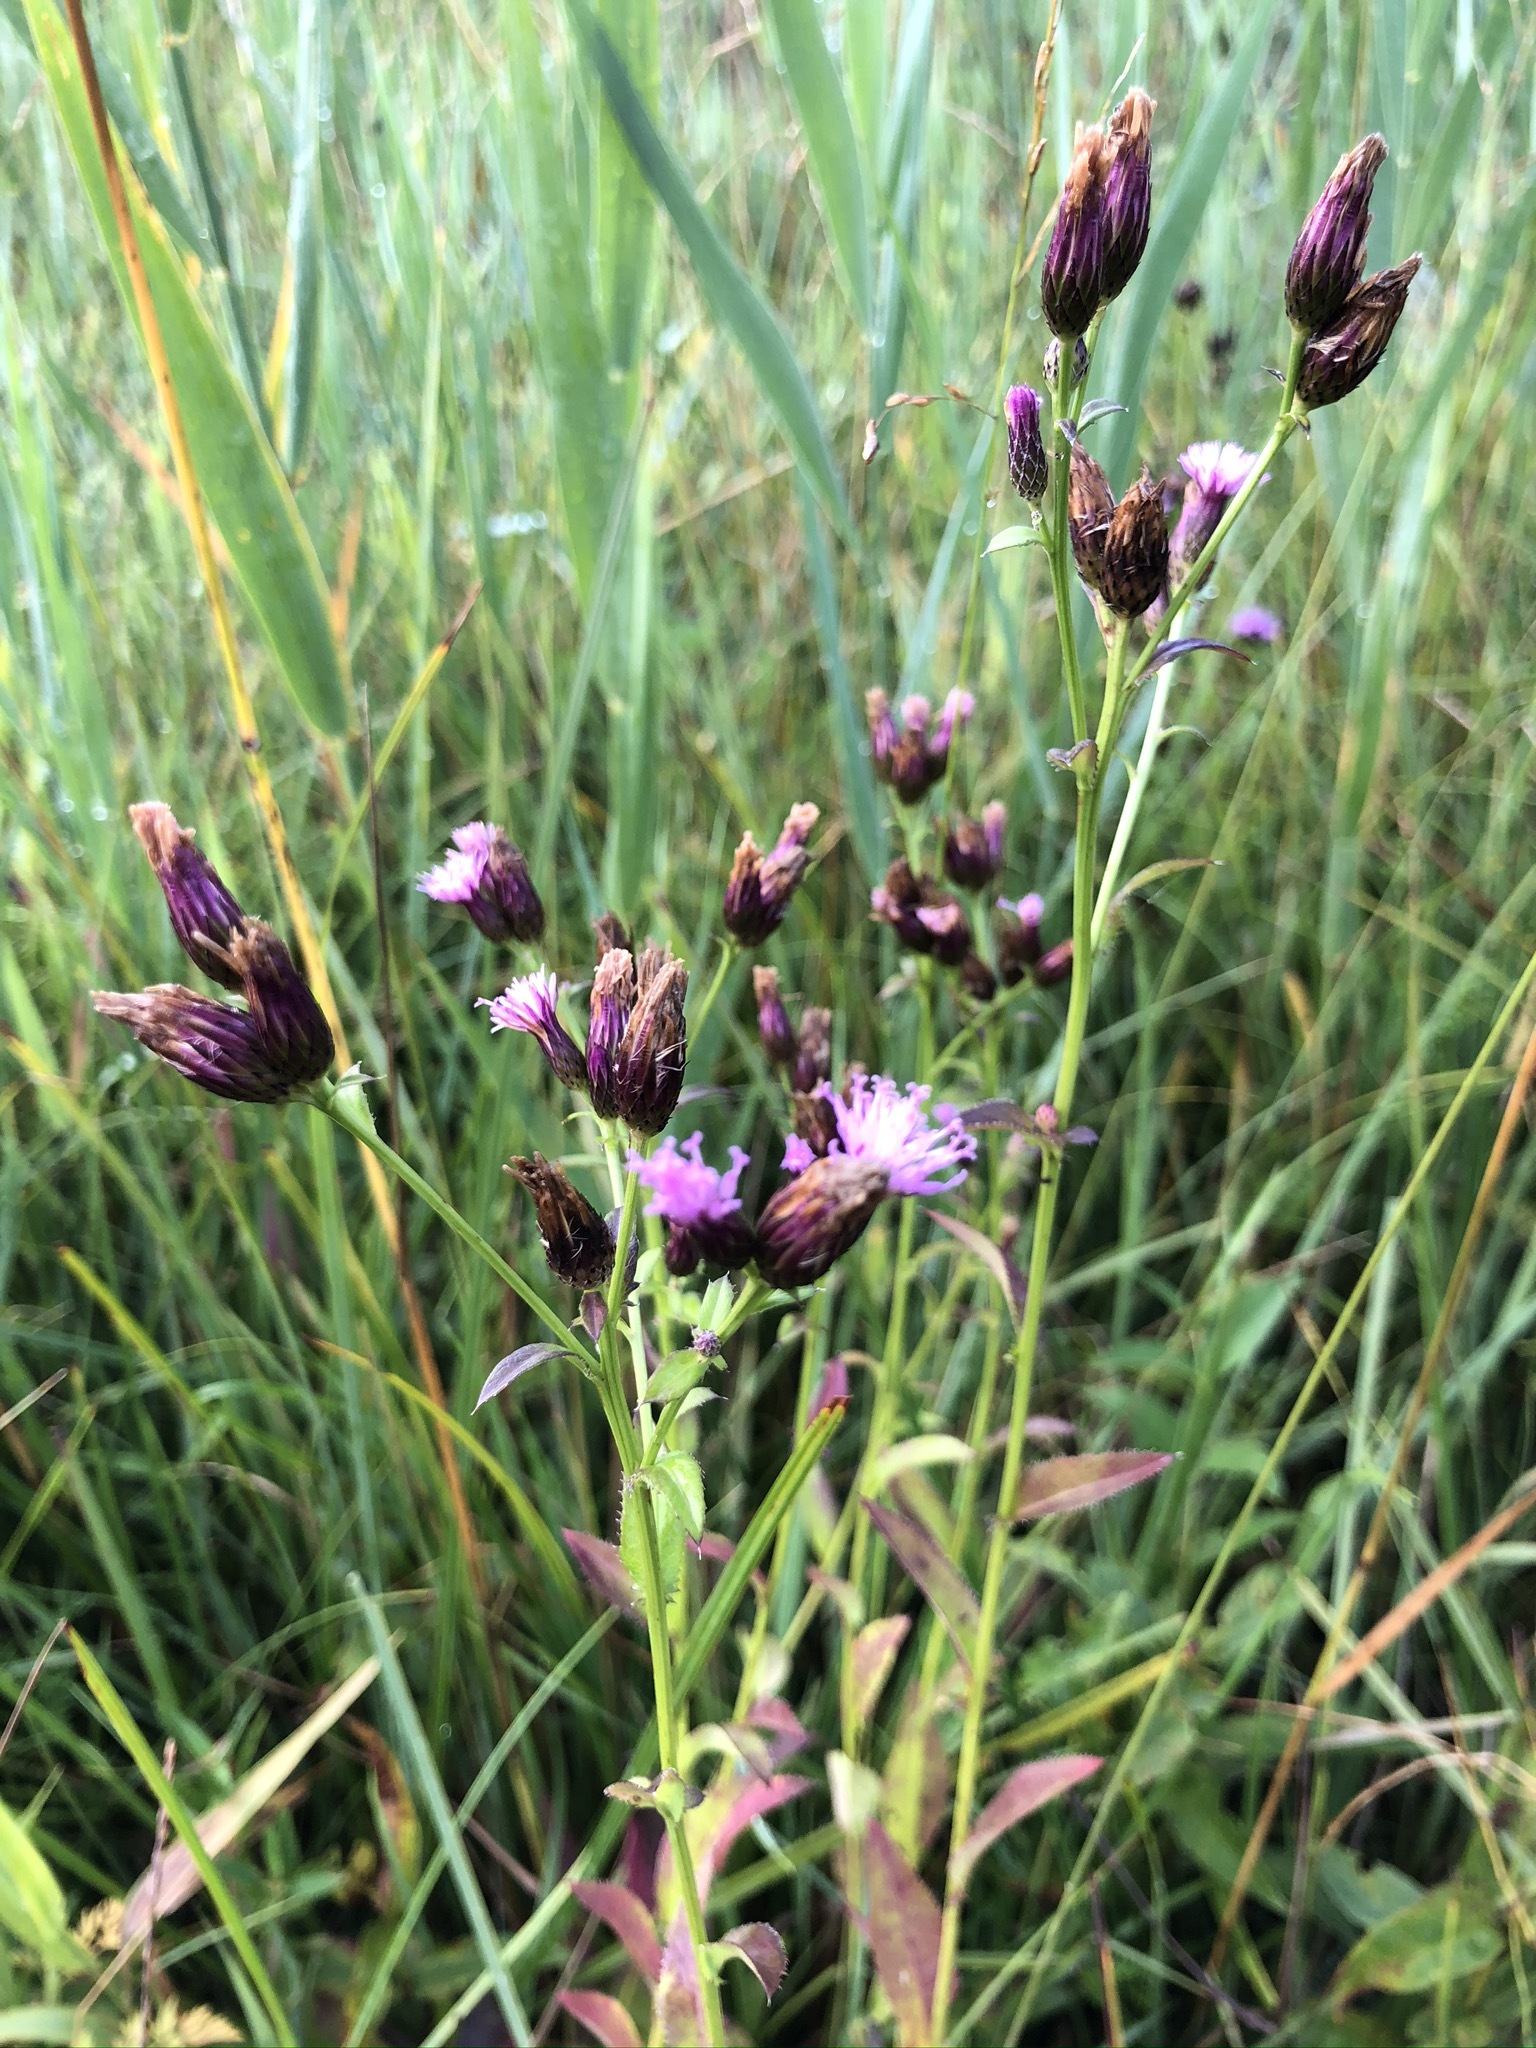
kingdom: Plantae
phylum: Tracheophyta
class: Magnoliopsida
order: Asterales
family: Asteraceae
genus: Serratula
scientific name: Serratula tinctoria
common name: Saw-wort
